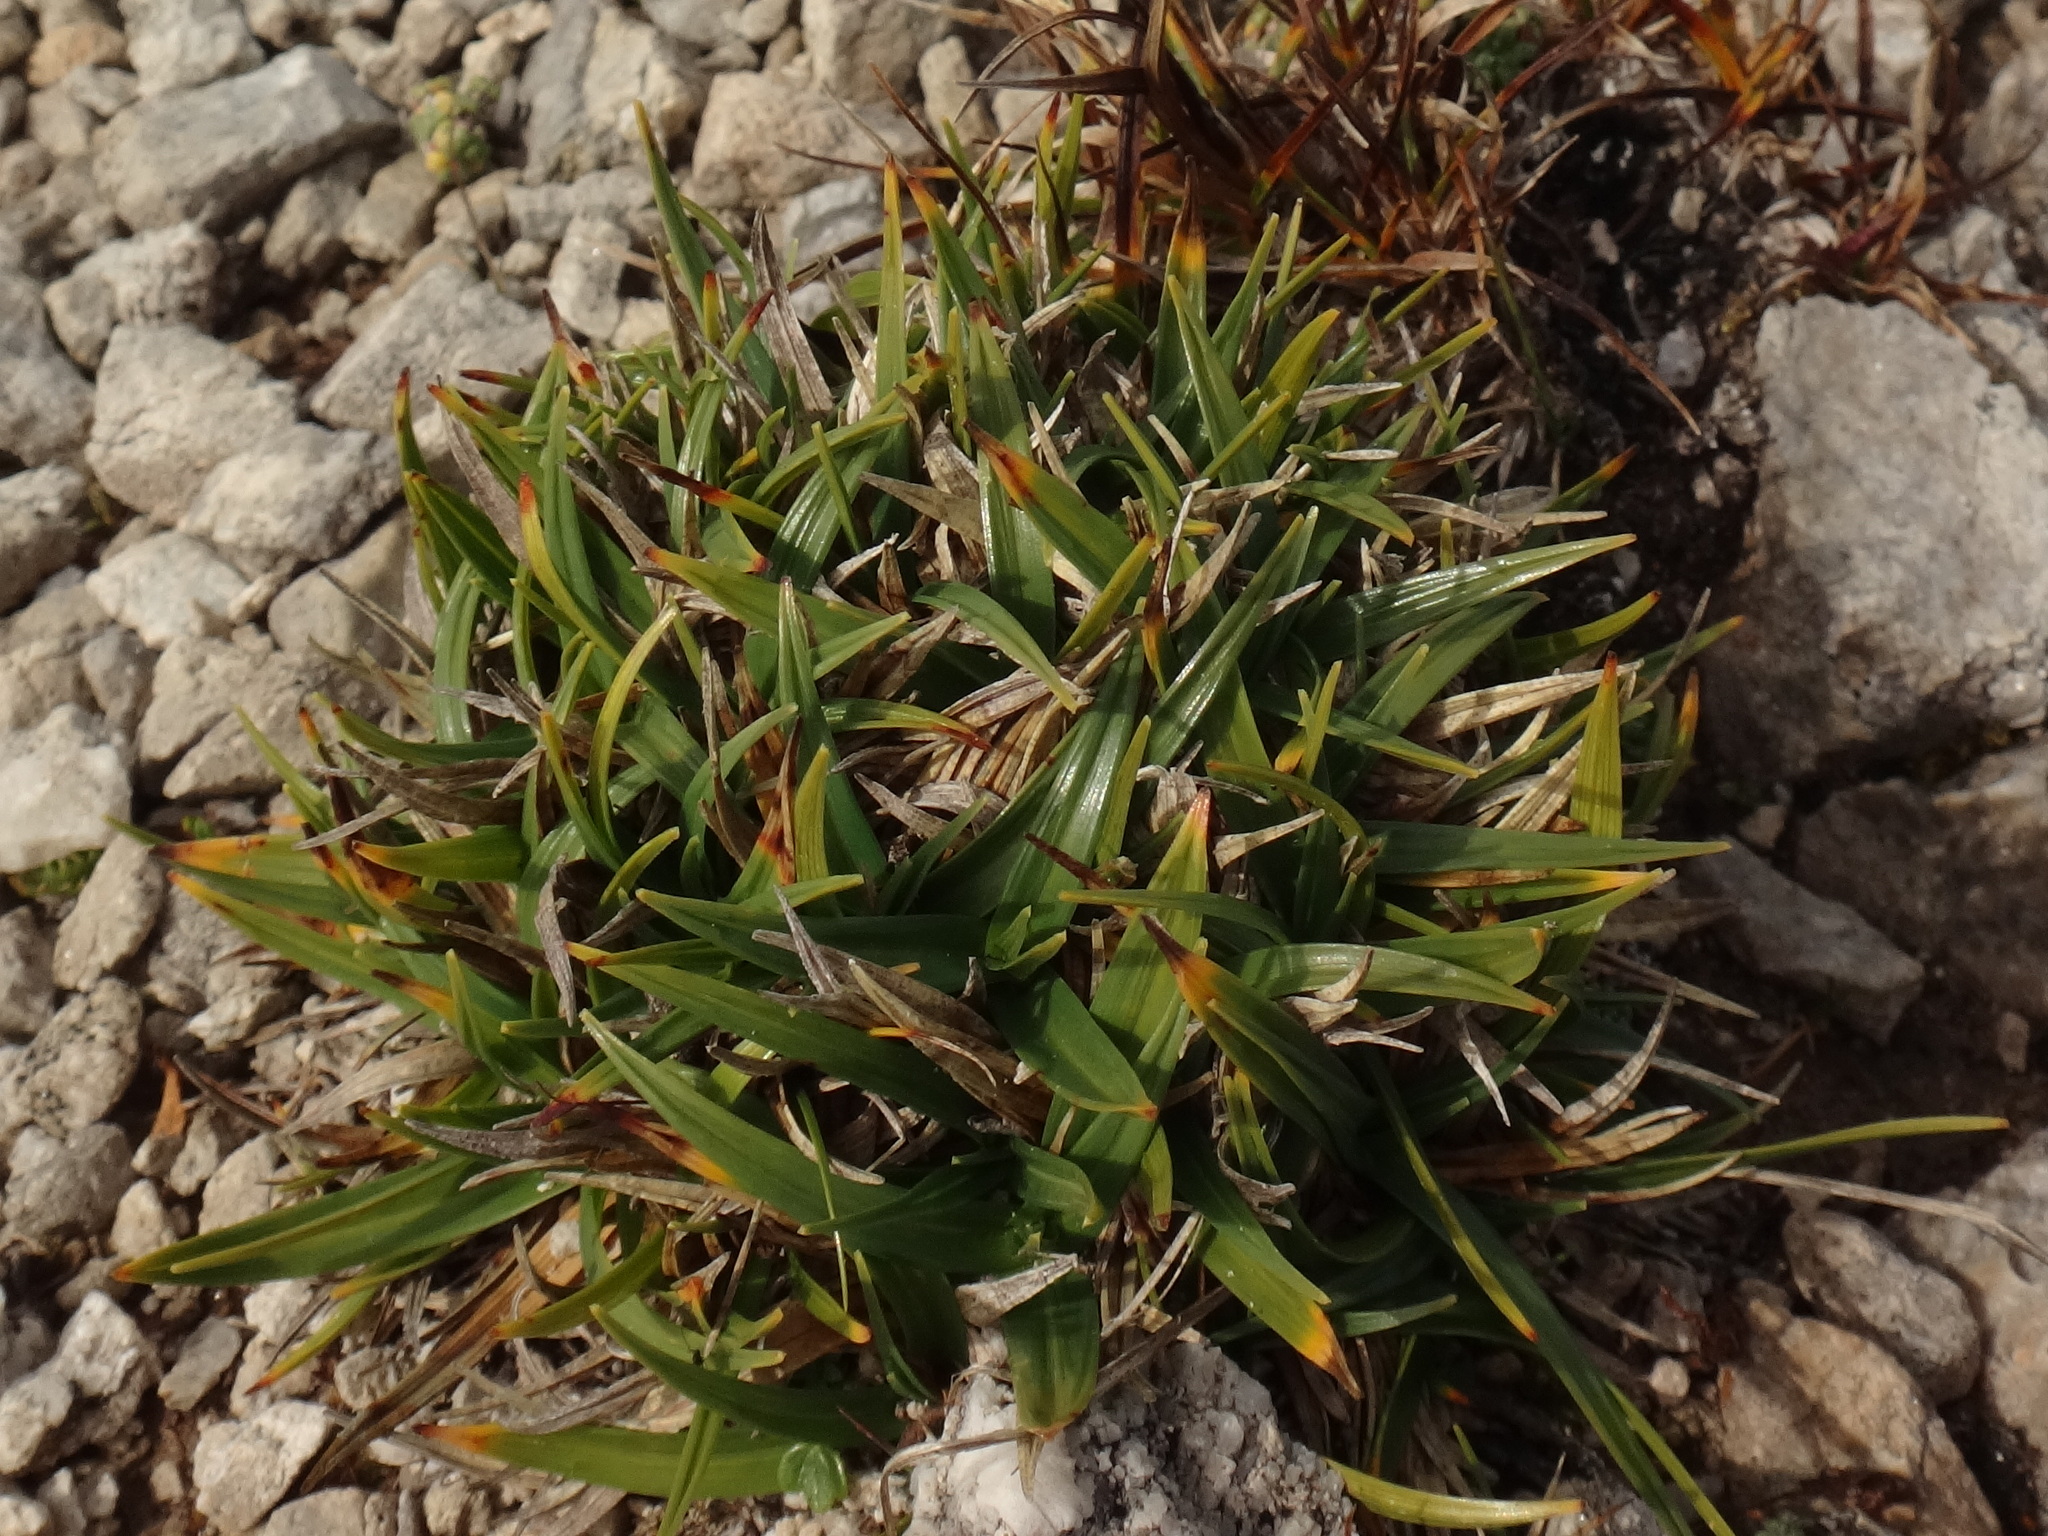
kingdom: Plantae
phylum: Tracheophyta
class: Liliopsida
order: Poales
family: Cyperaceae
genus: Carex
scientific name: Carex firma
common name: Dwarf pillow sedge
